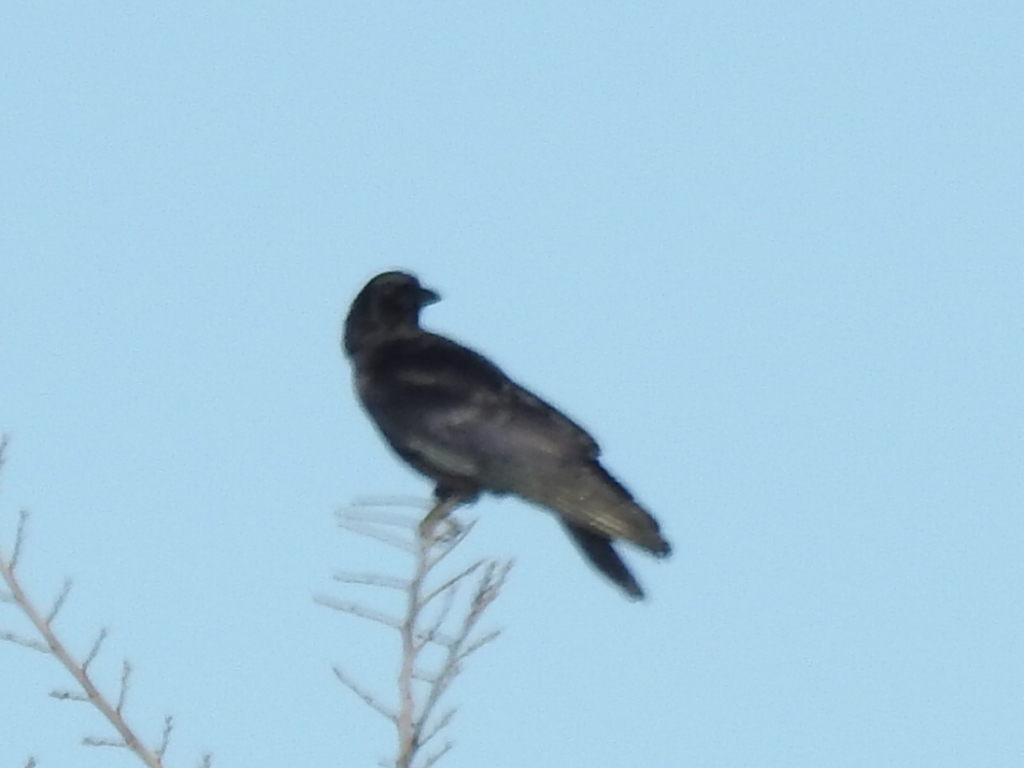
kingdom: Animalia
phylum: Chordata
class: Aves
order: Passeriformes
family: Corvidae
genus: Corvus
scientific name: Corvus brachyrhynchos
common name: American crow
